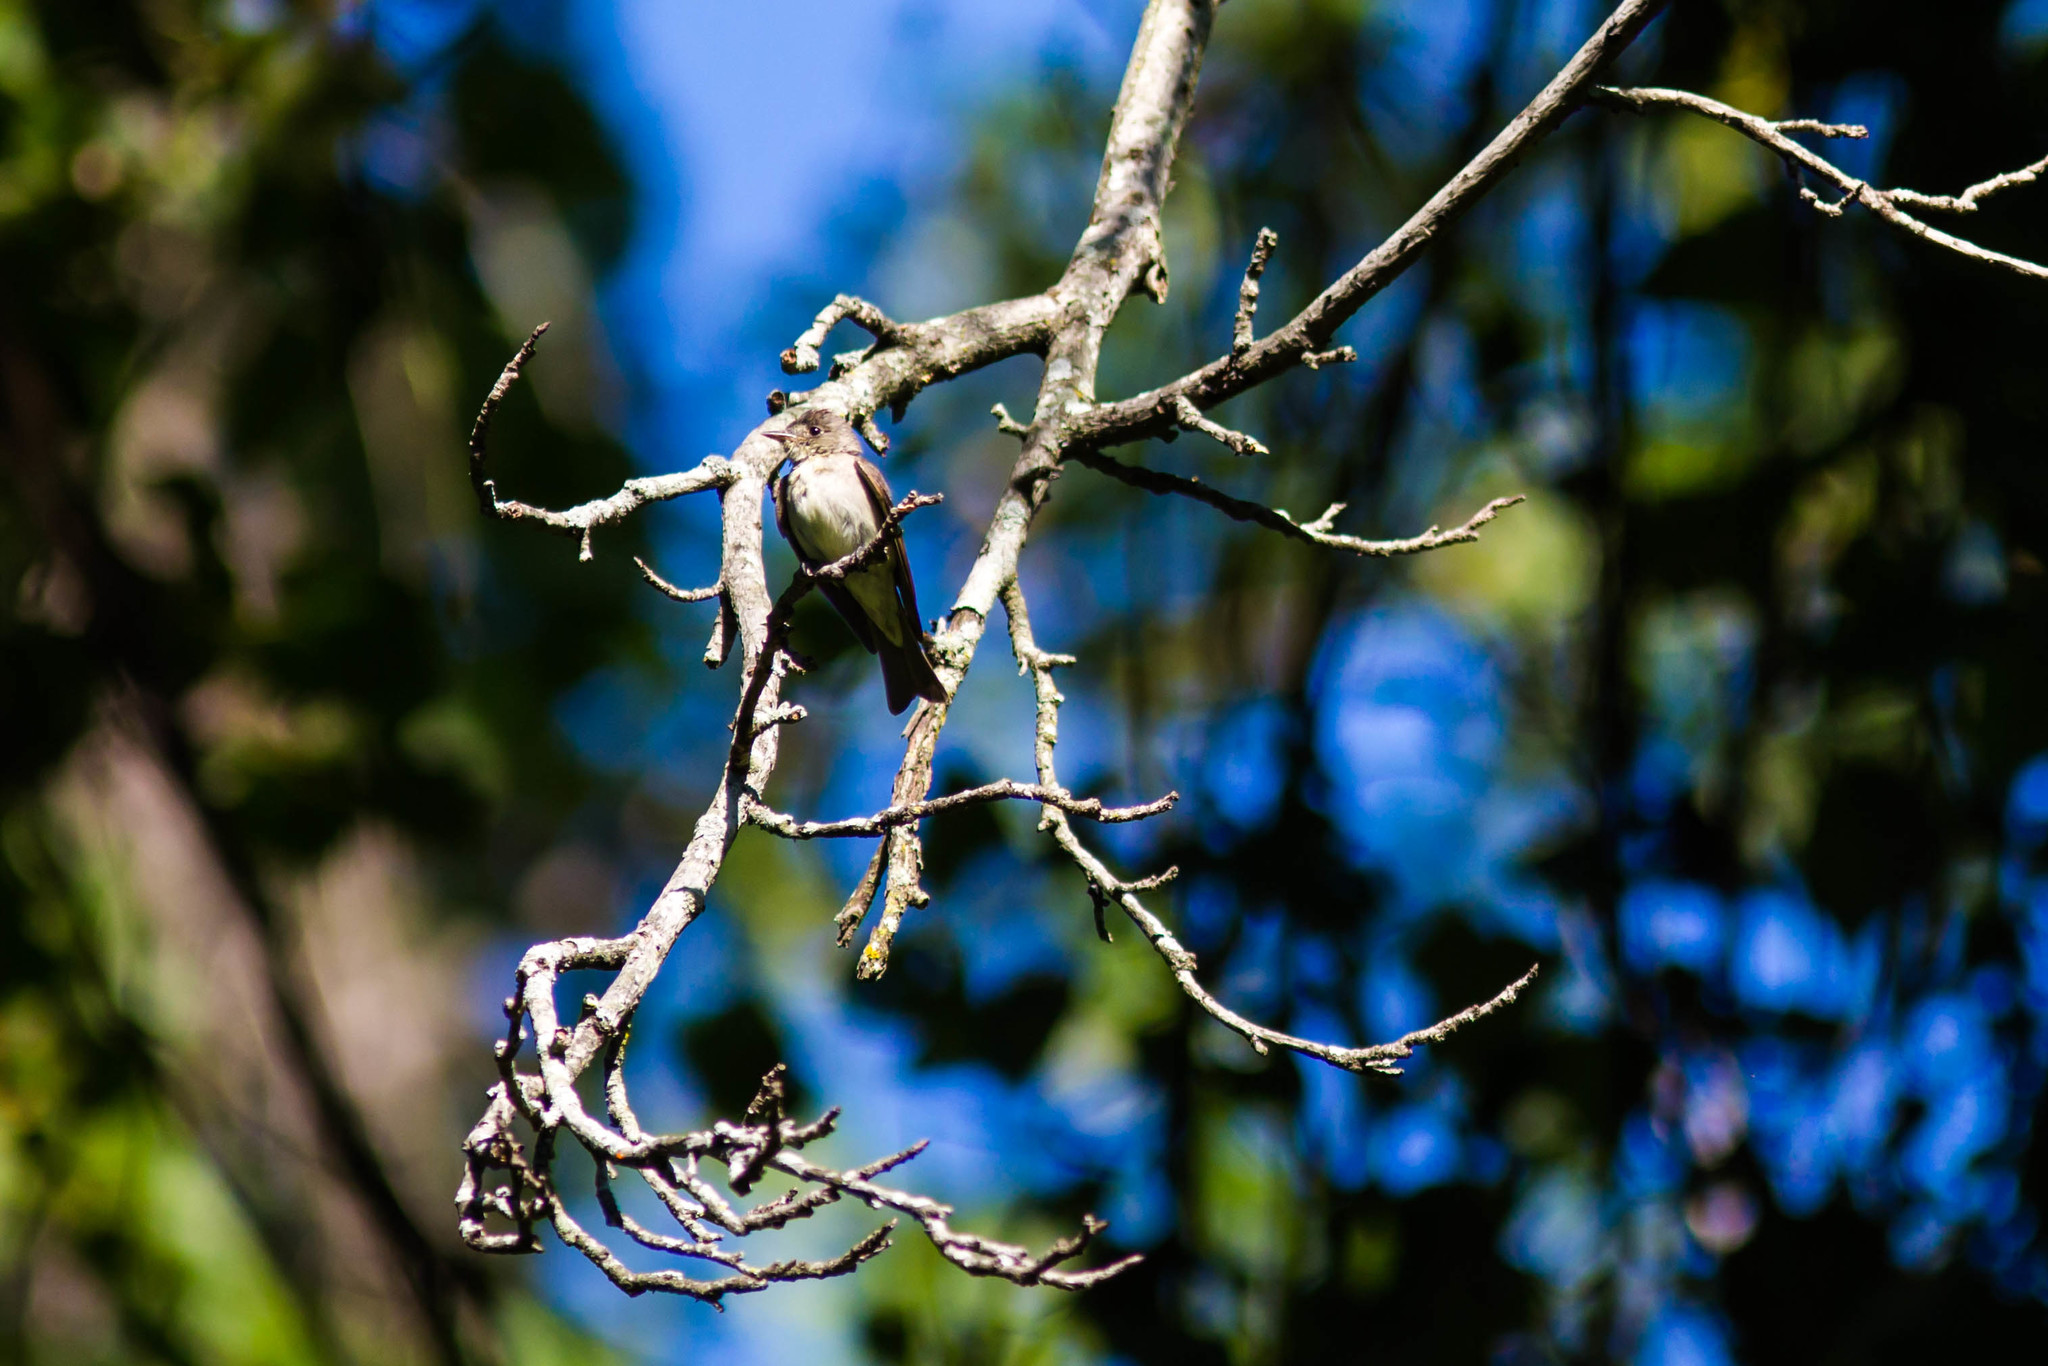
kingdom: Animalia
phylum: Chordata
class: Aves
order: Passeriformes
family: Tyrannidae
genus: Contopus
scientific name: Contopus virens
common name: Eastern wood-pewee
